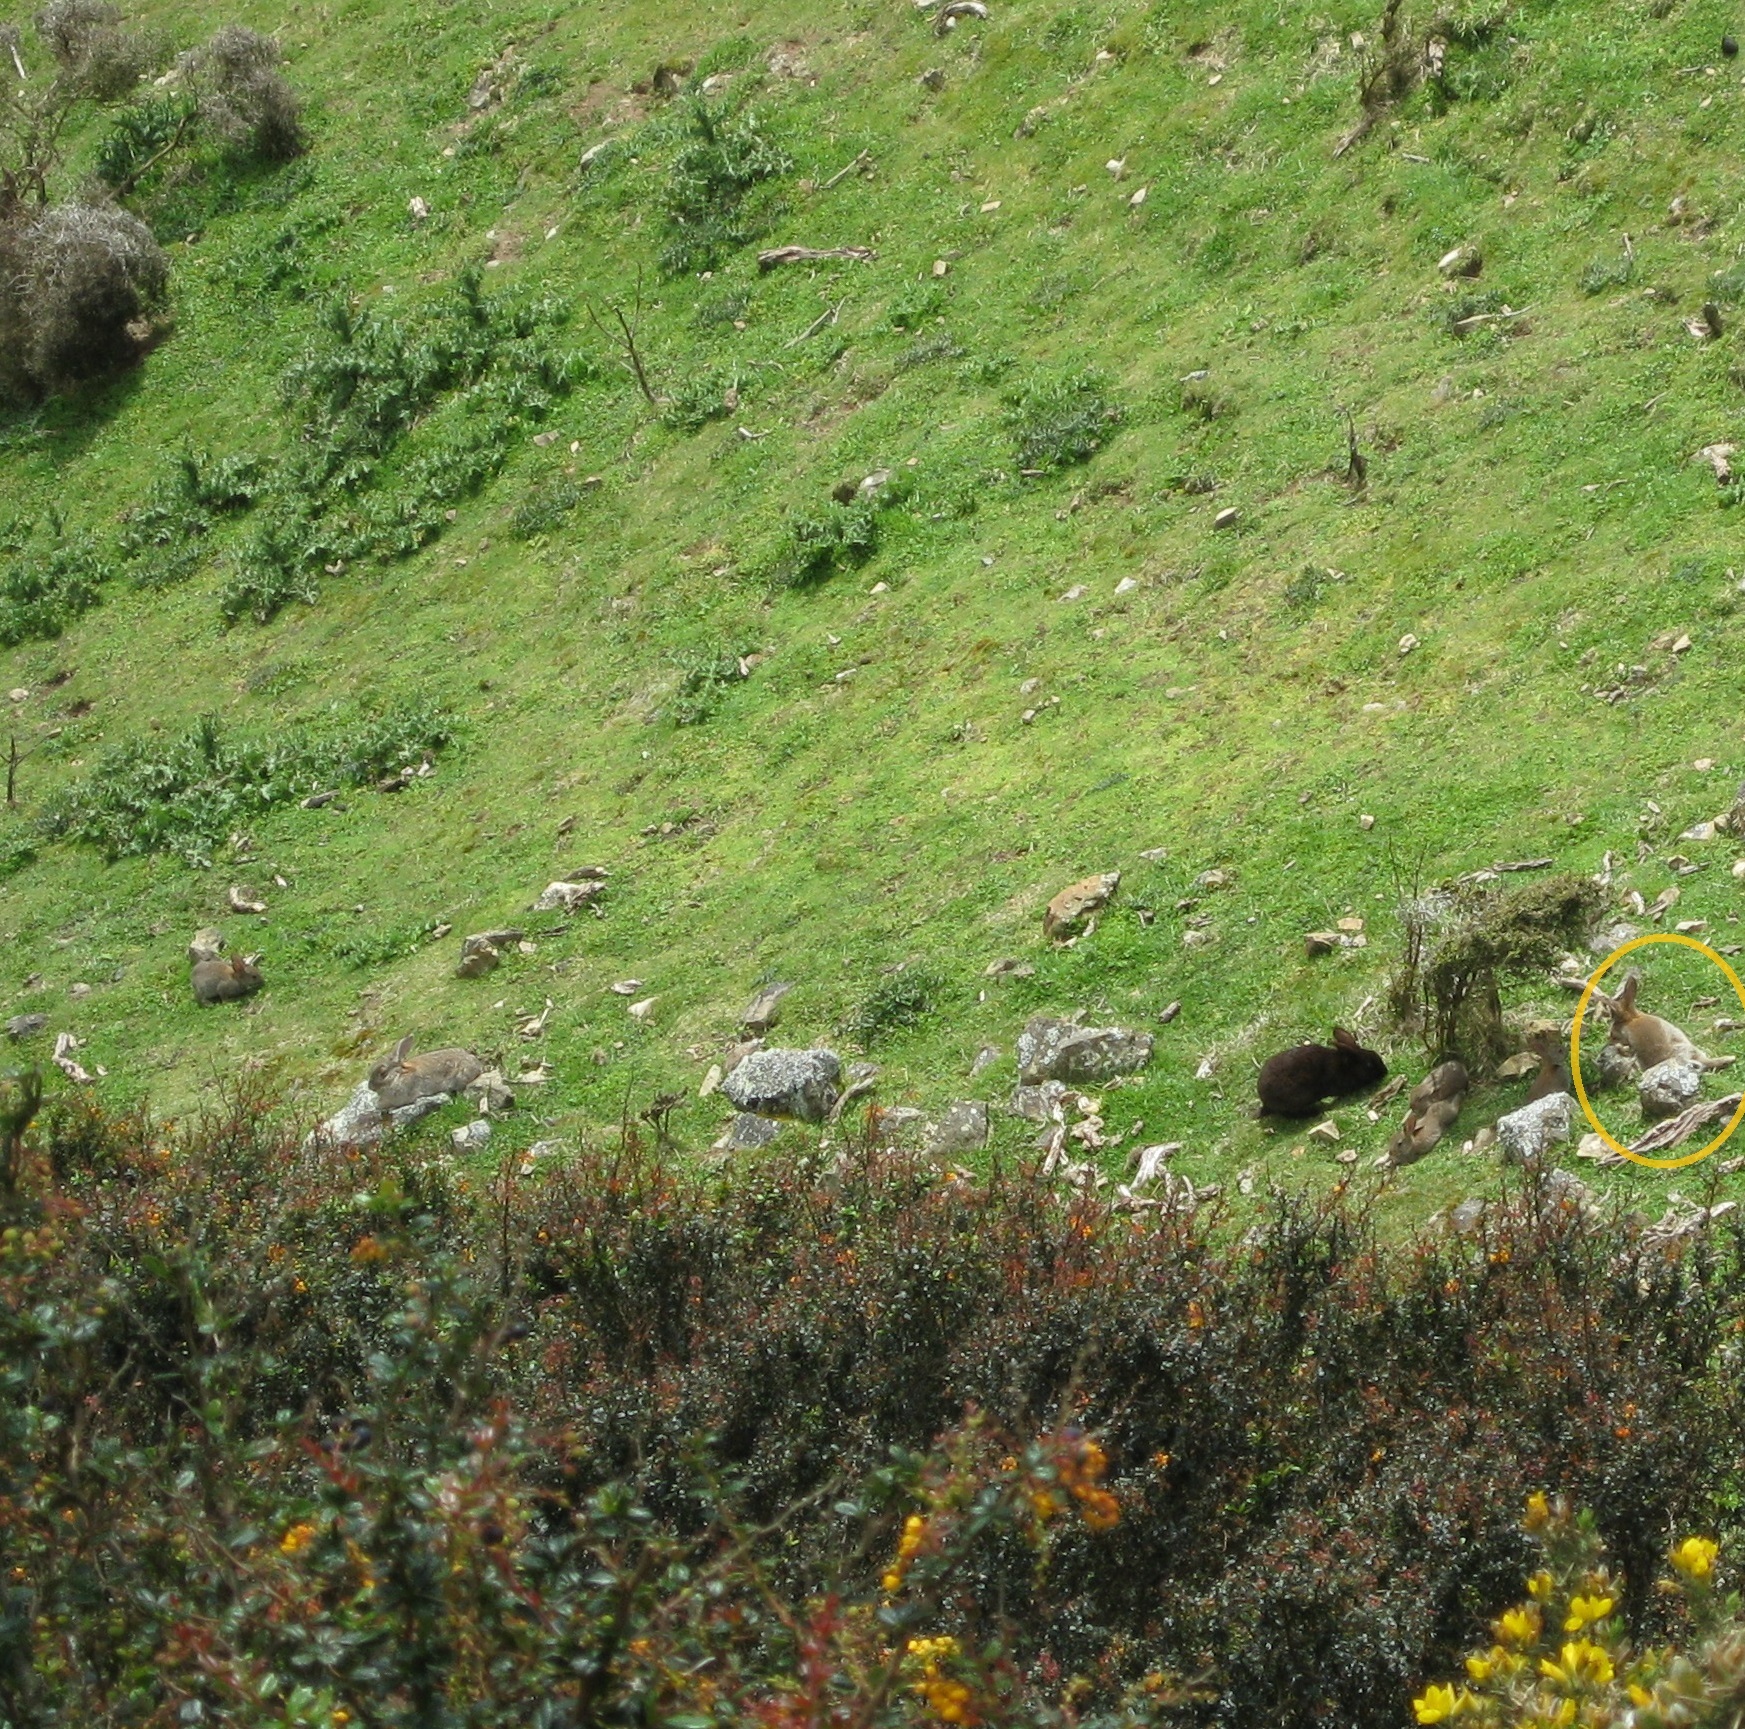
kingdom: Animalia
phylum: Chordata
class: Mammalia
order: Lagomorpha
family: Leporidae
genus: Oryctolagus
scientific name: Oryctolagus cuniculus
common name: European rabbit
